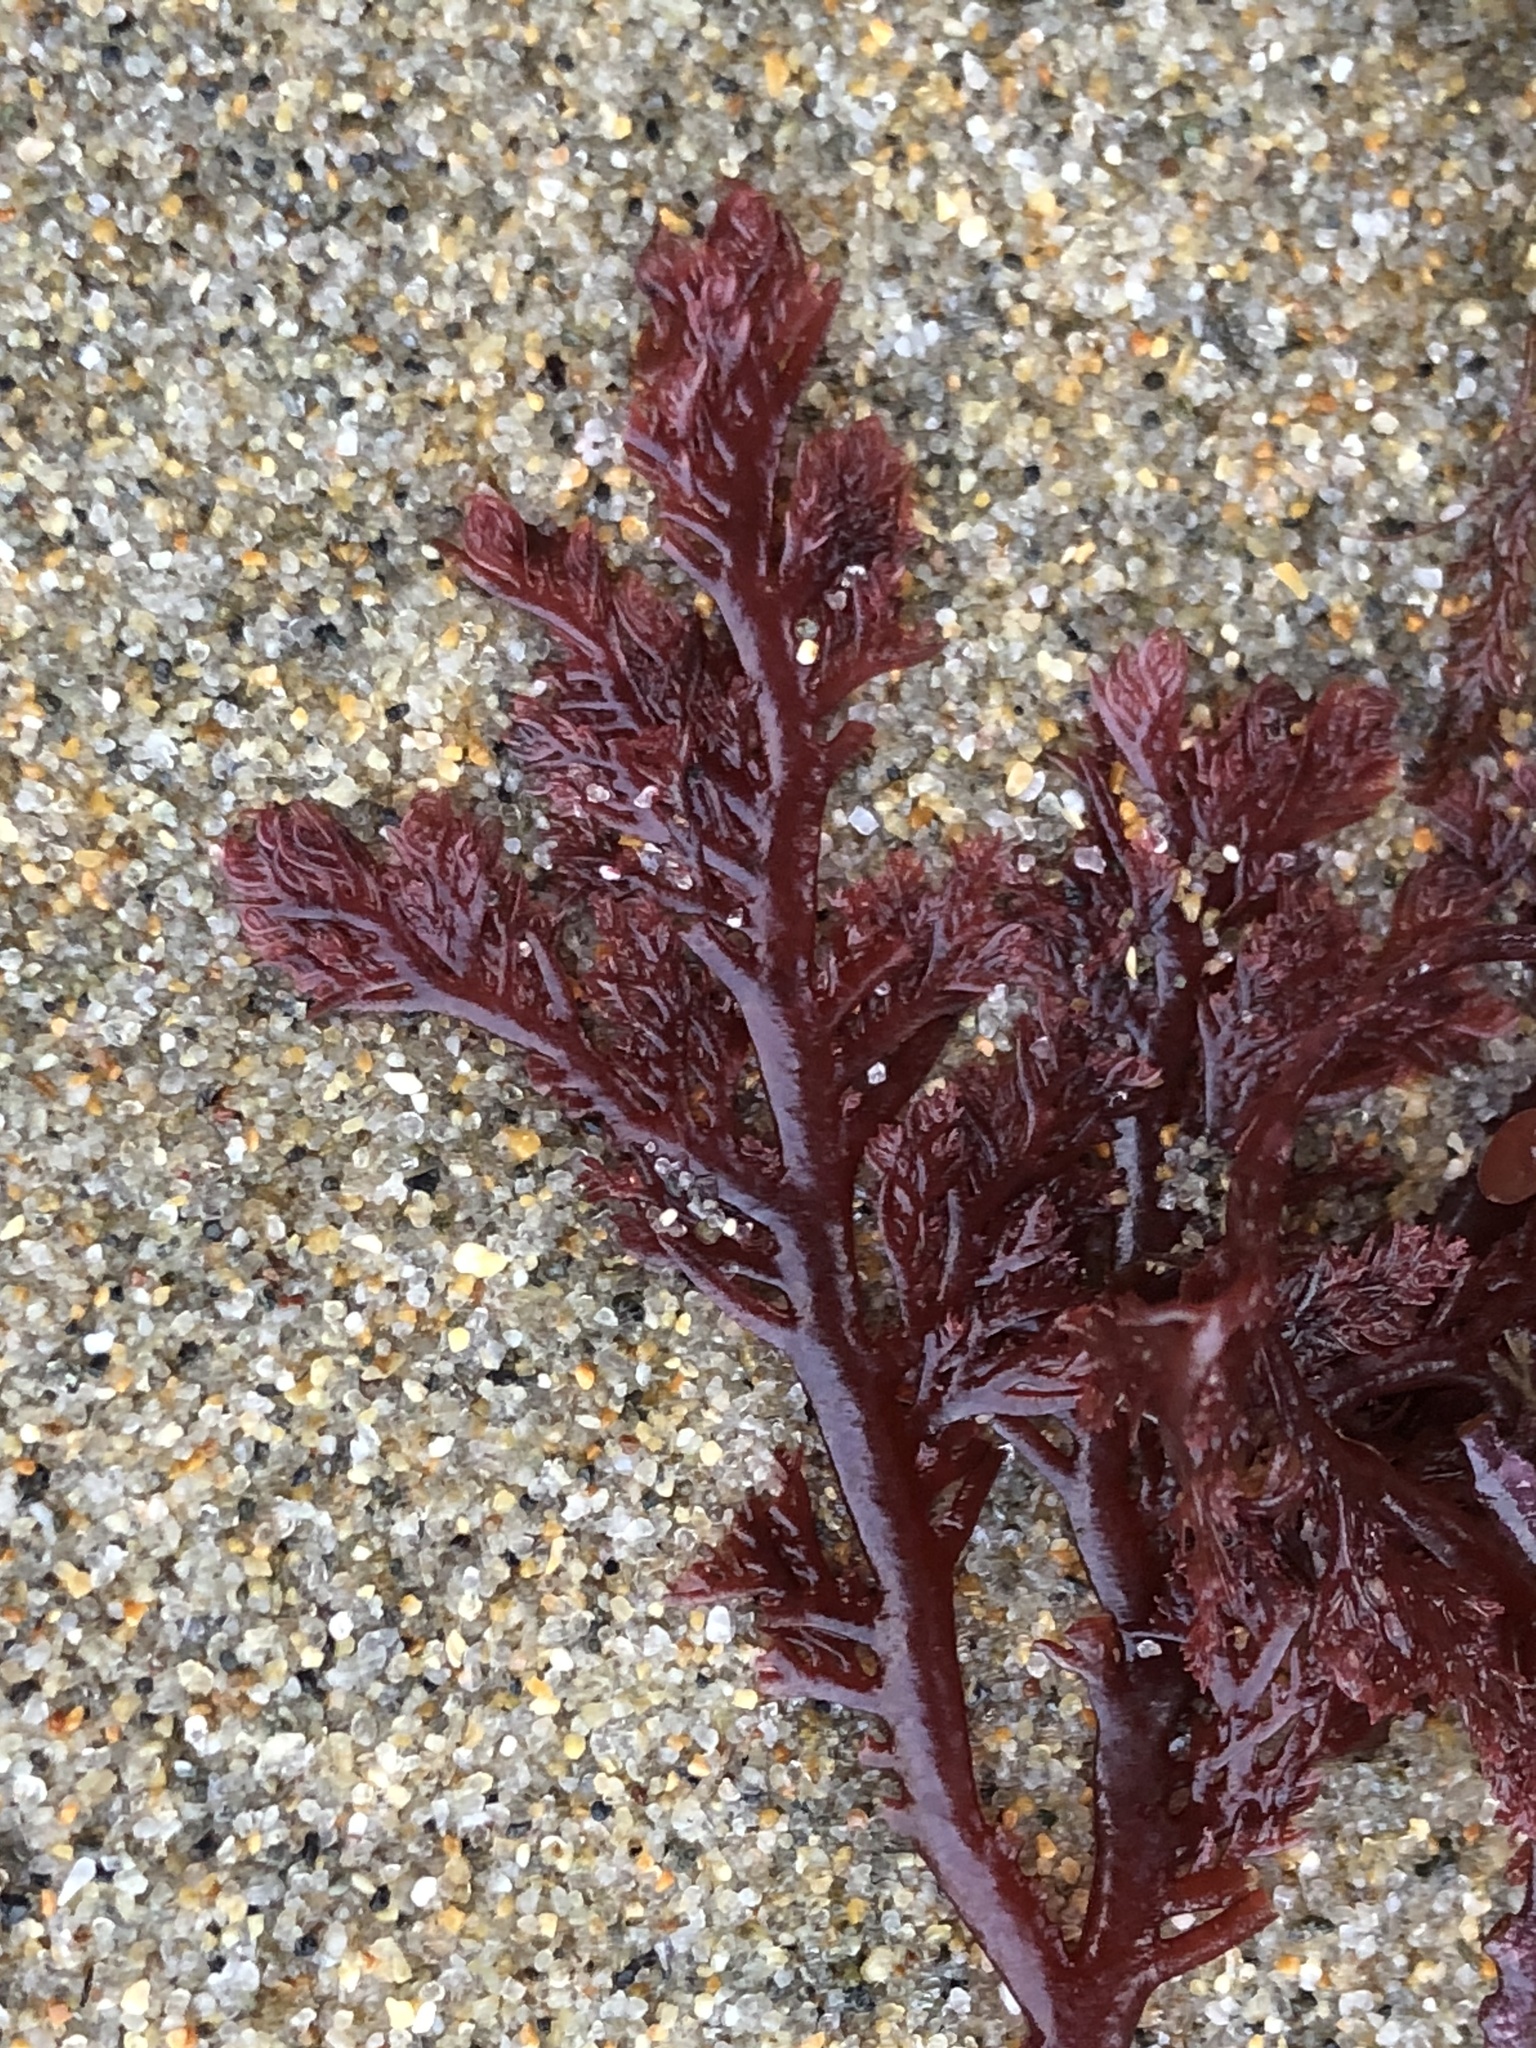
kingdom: Plantae
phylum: Rhodophyta
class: Florideophyceae
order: Plocamiales
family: Plocamiaceae
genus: Plocamium
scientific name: Plocamium cartilagineum
